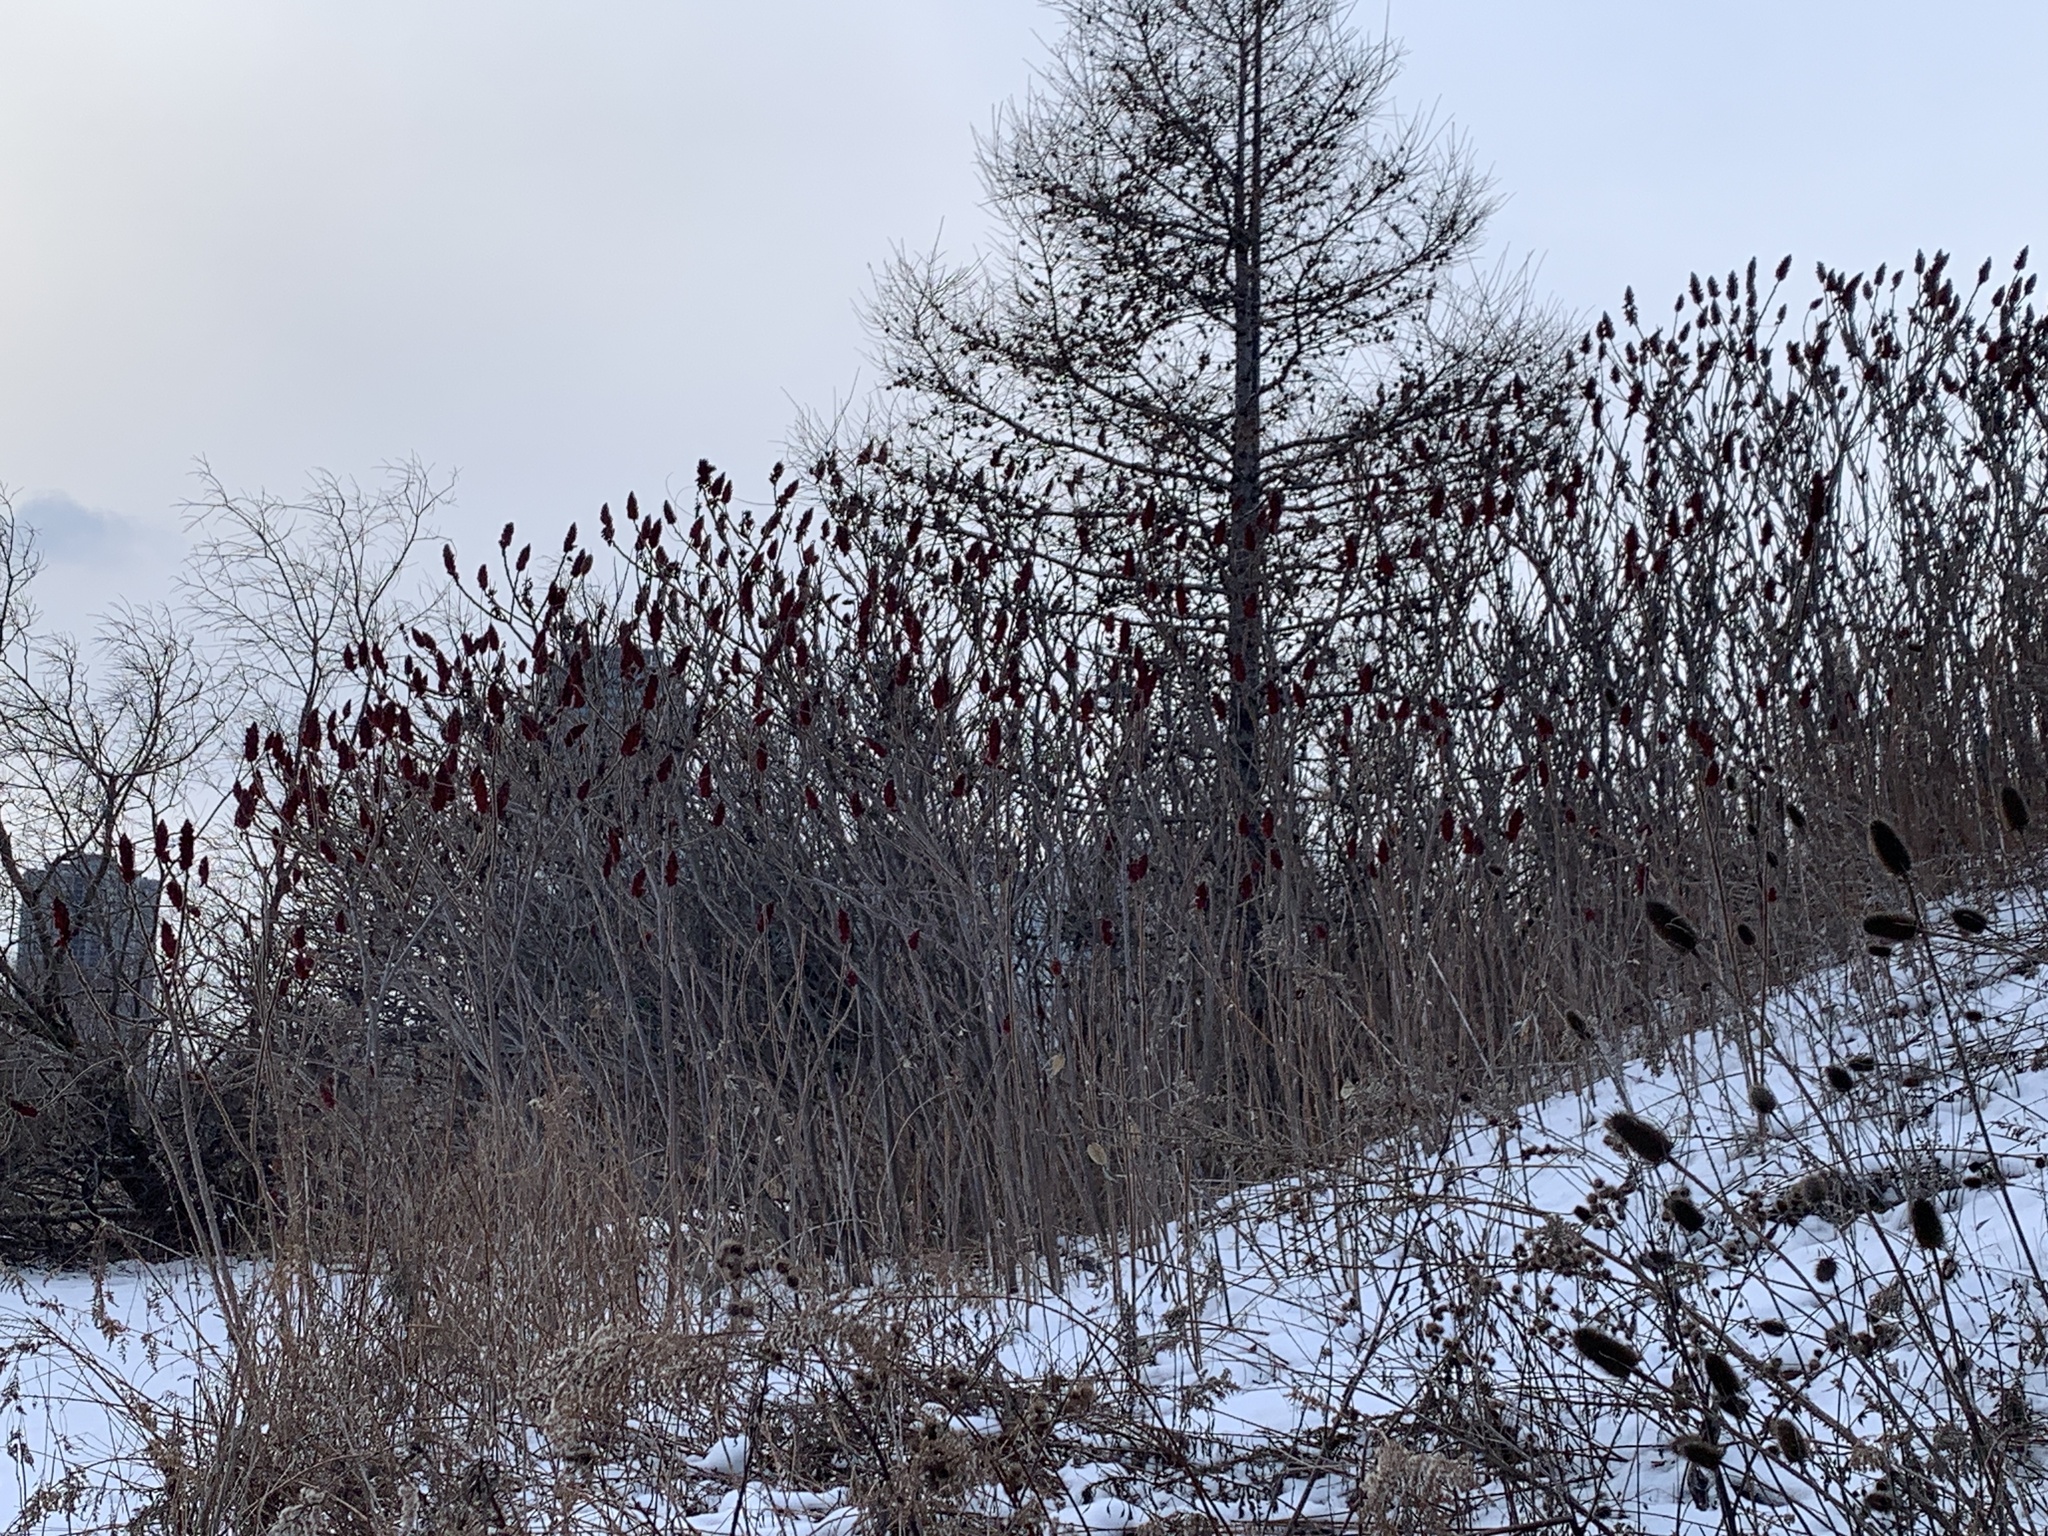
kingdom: Plantae
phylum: Tracheophyta
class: Magnoliopsida
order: Sapindales
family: Anacardiaceae
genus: Rhus
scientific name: Rhus typhina
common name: Staghorn sumac
